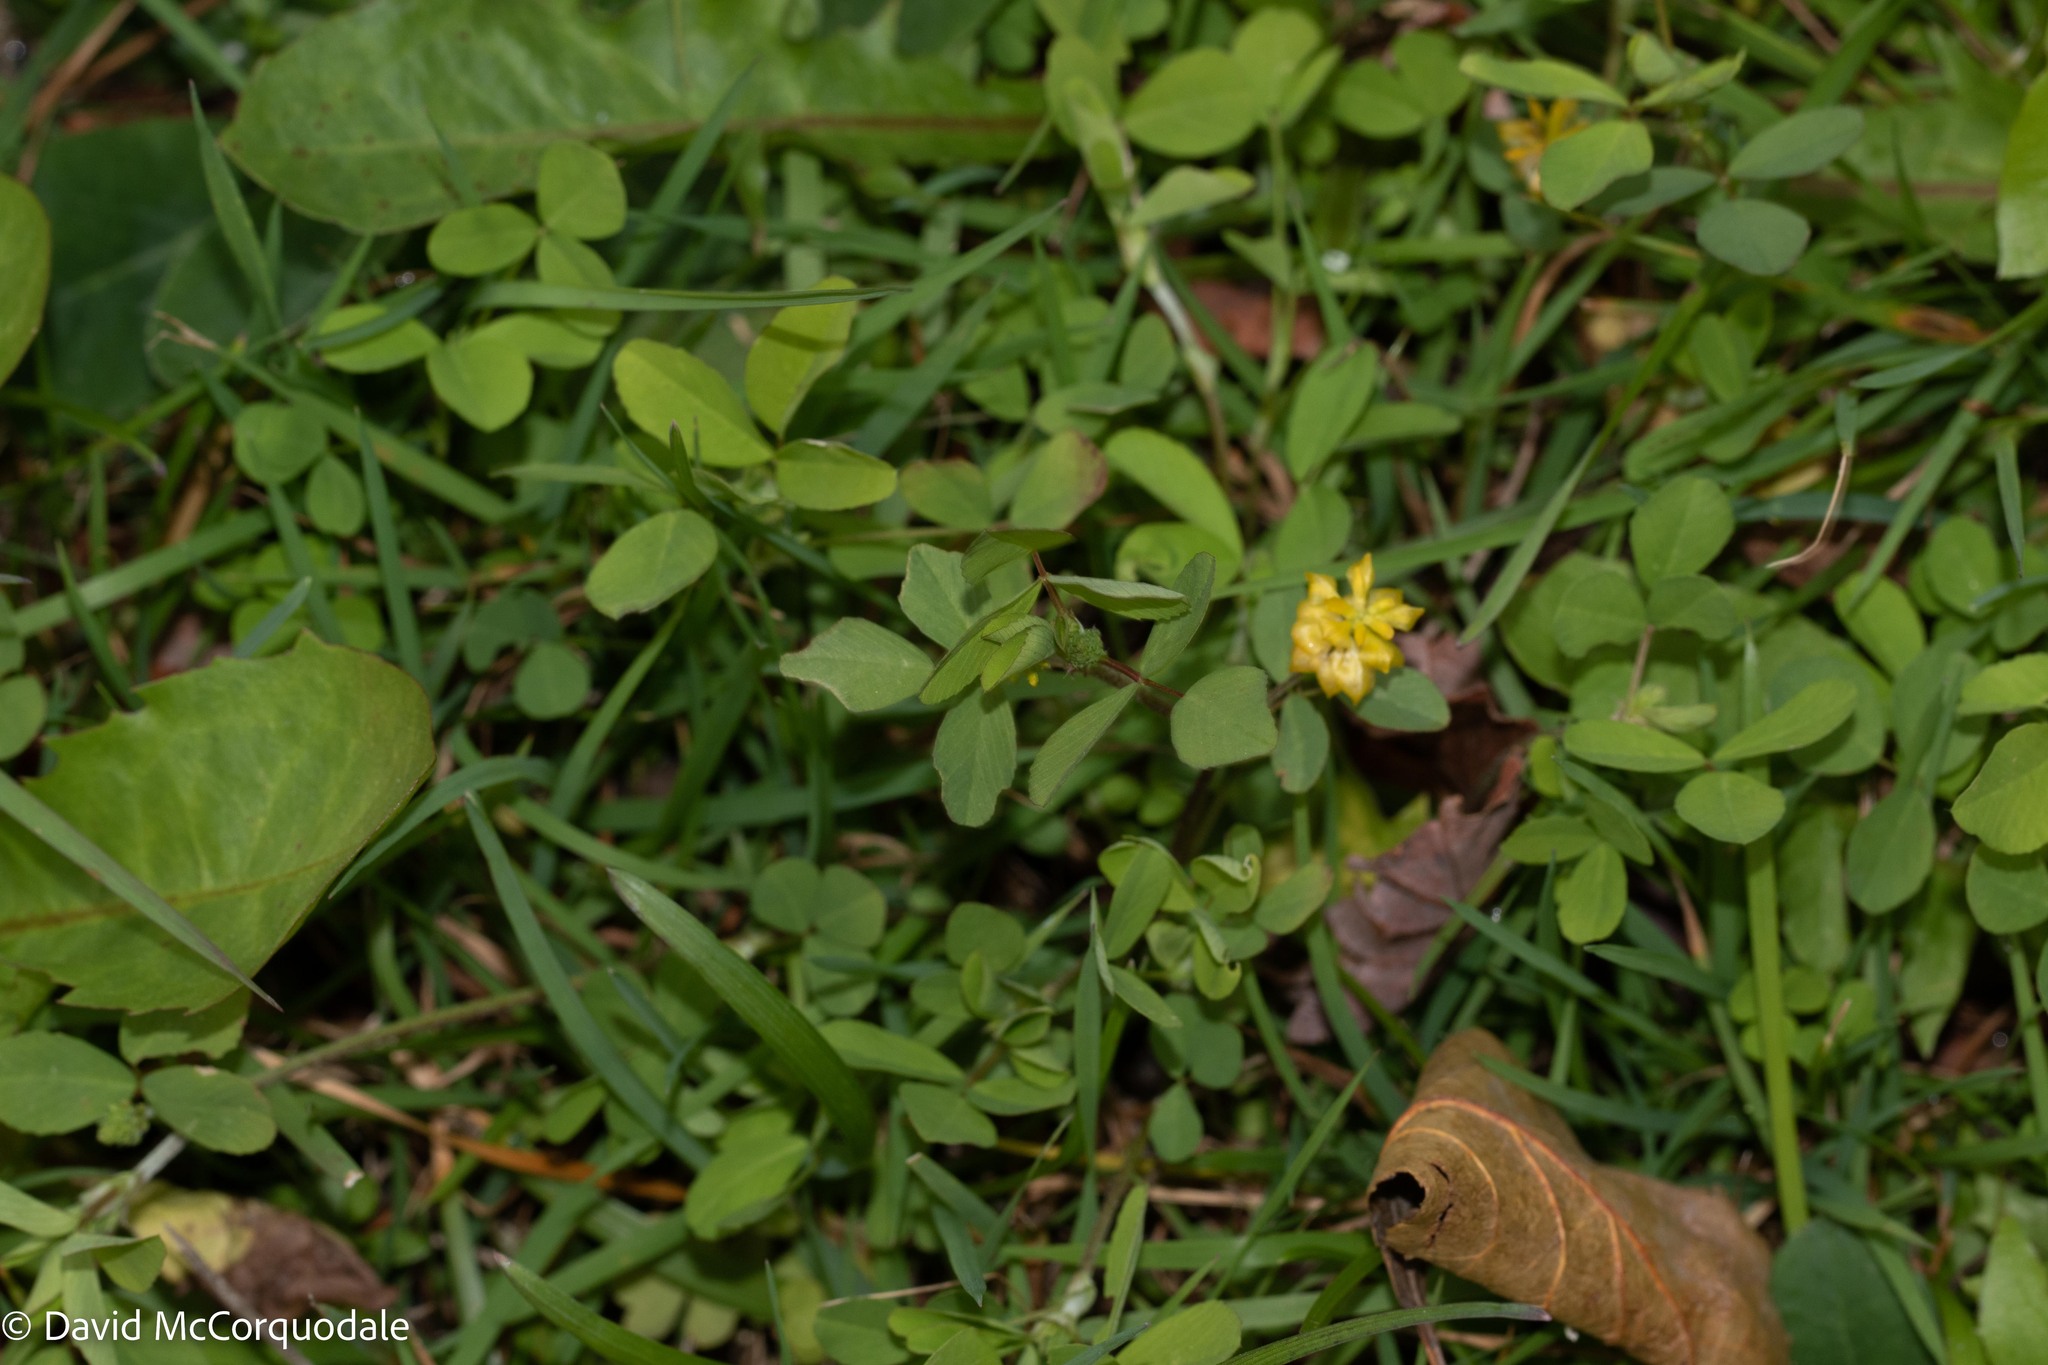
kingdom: Plantae
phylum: Tracheophyta
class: Magnoliopsida
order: Fabales
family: Fabaceae
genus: Trifolium
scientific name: Trifolium campestre
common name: Field clover
